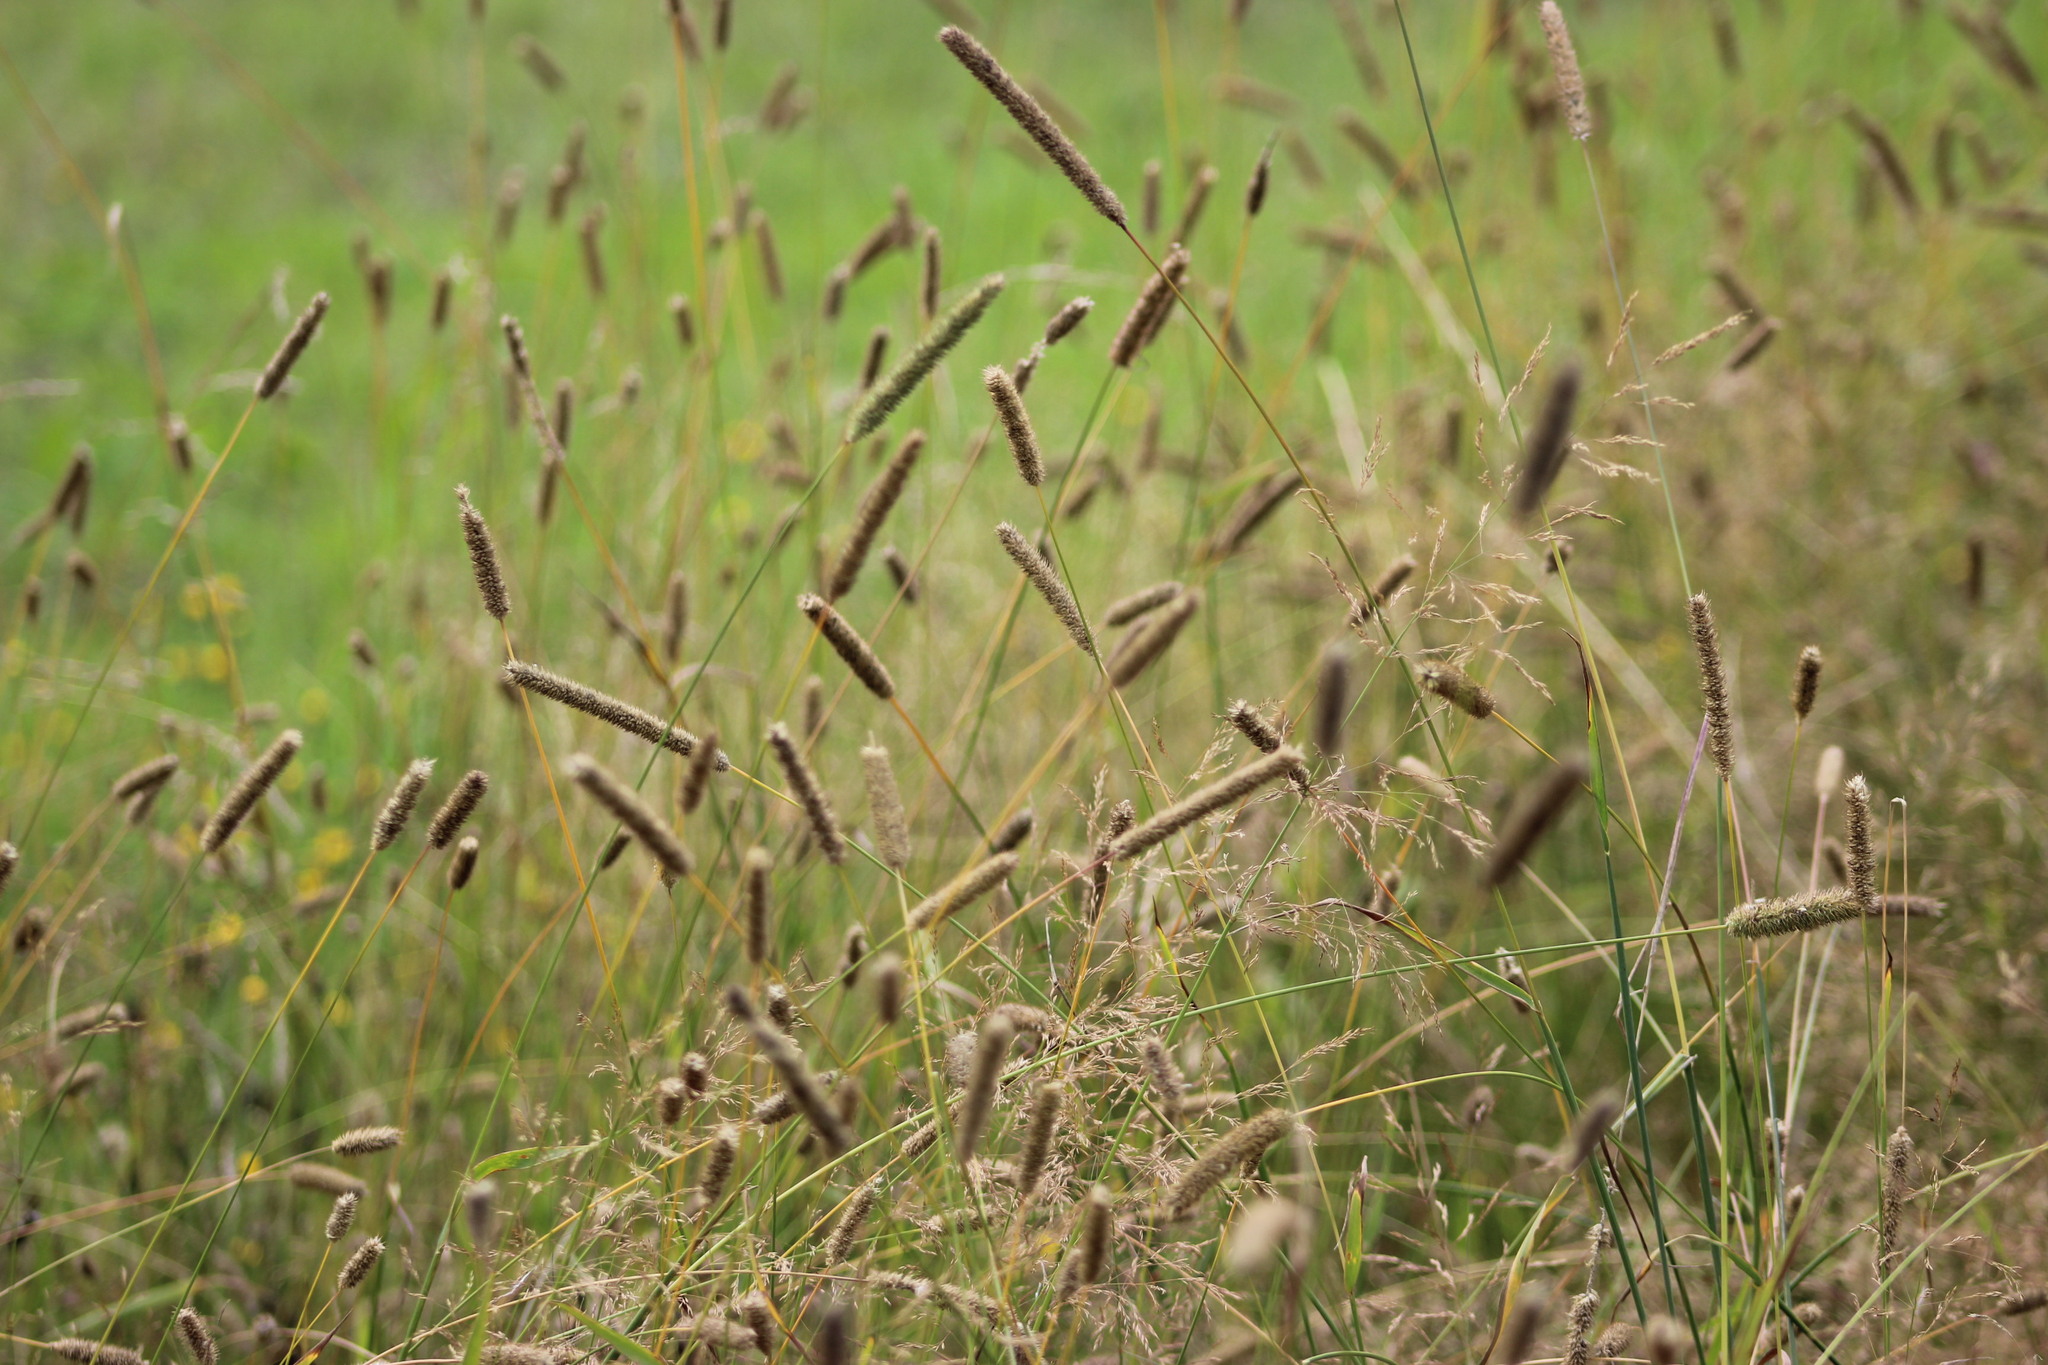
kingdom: Plantae
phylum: Tracheophyta
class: Liliopsida
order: Poales
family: Poaceae
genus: Phleum
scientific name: Phleum pratense
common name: Timothy grass
